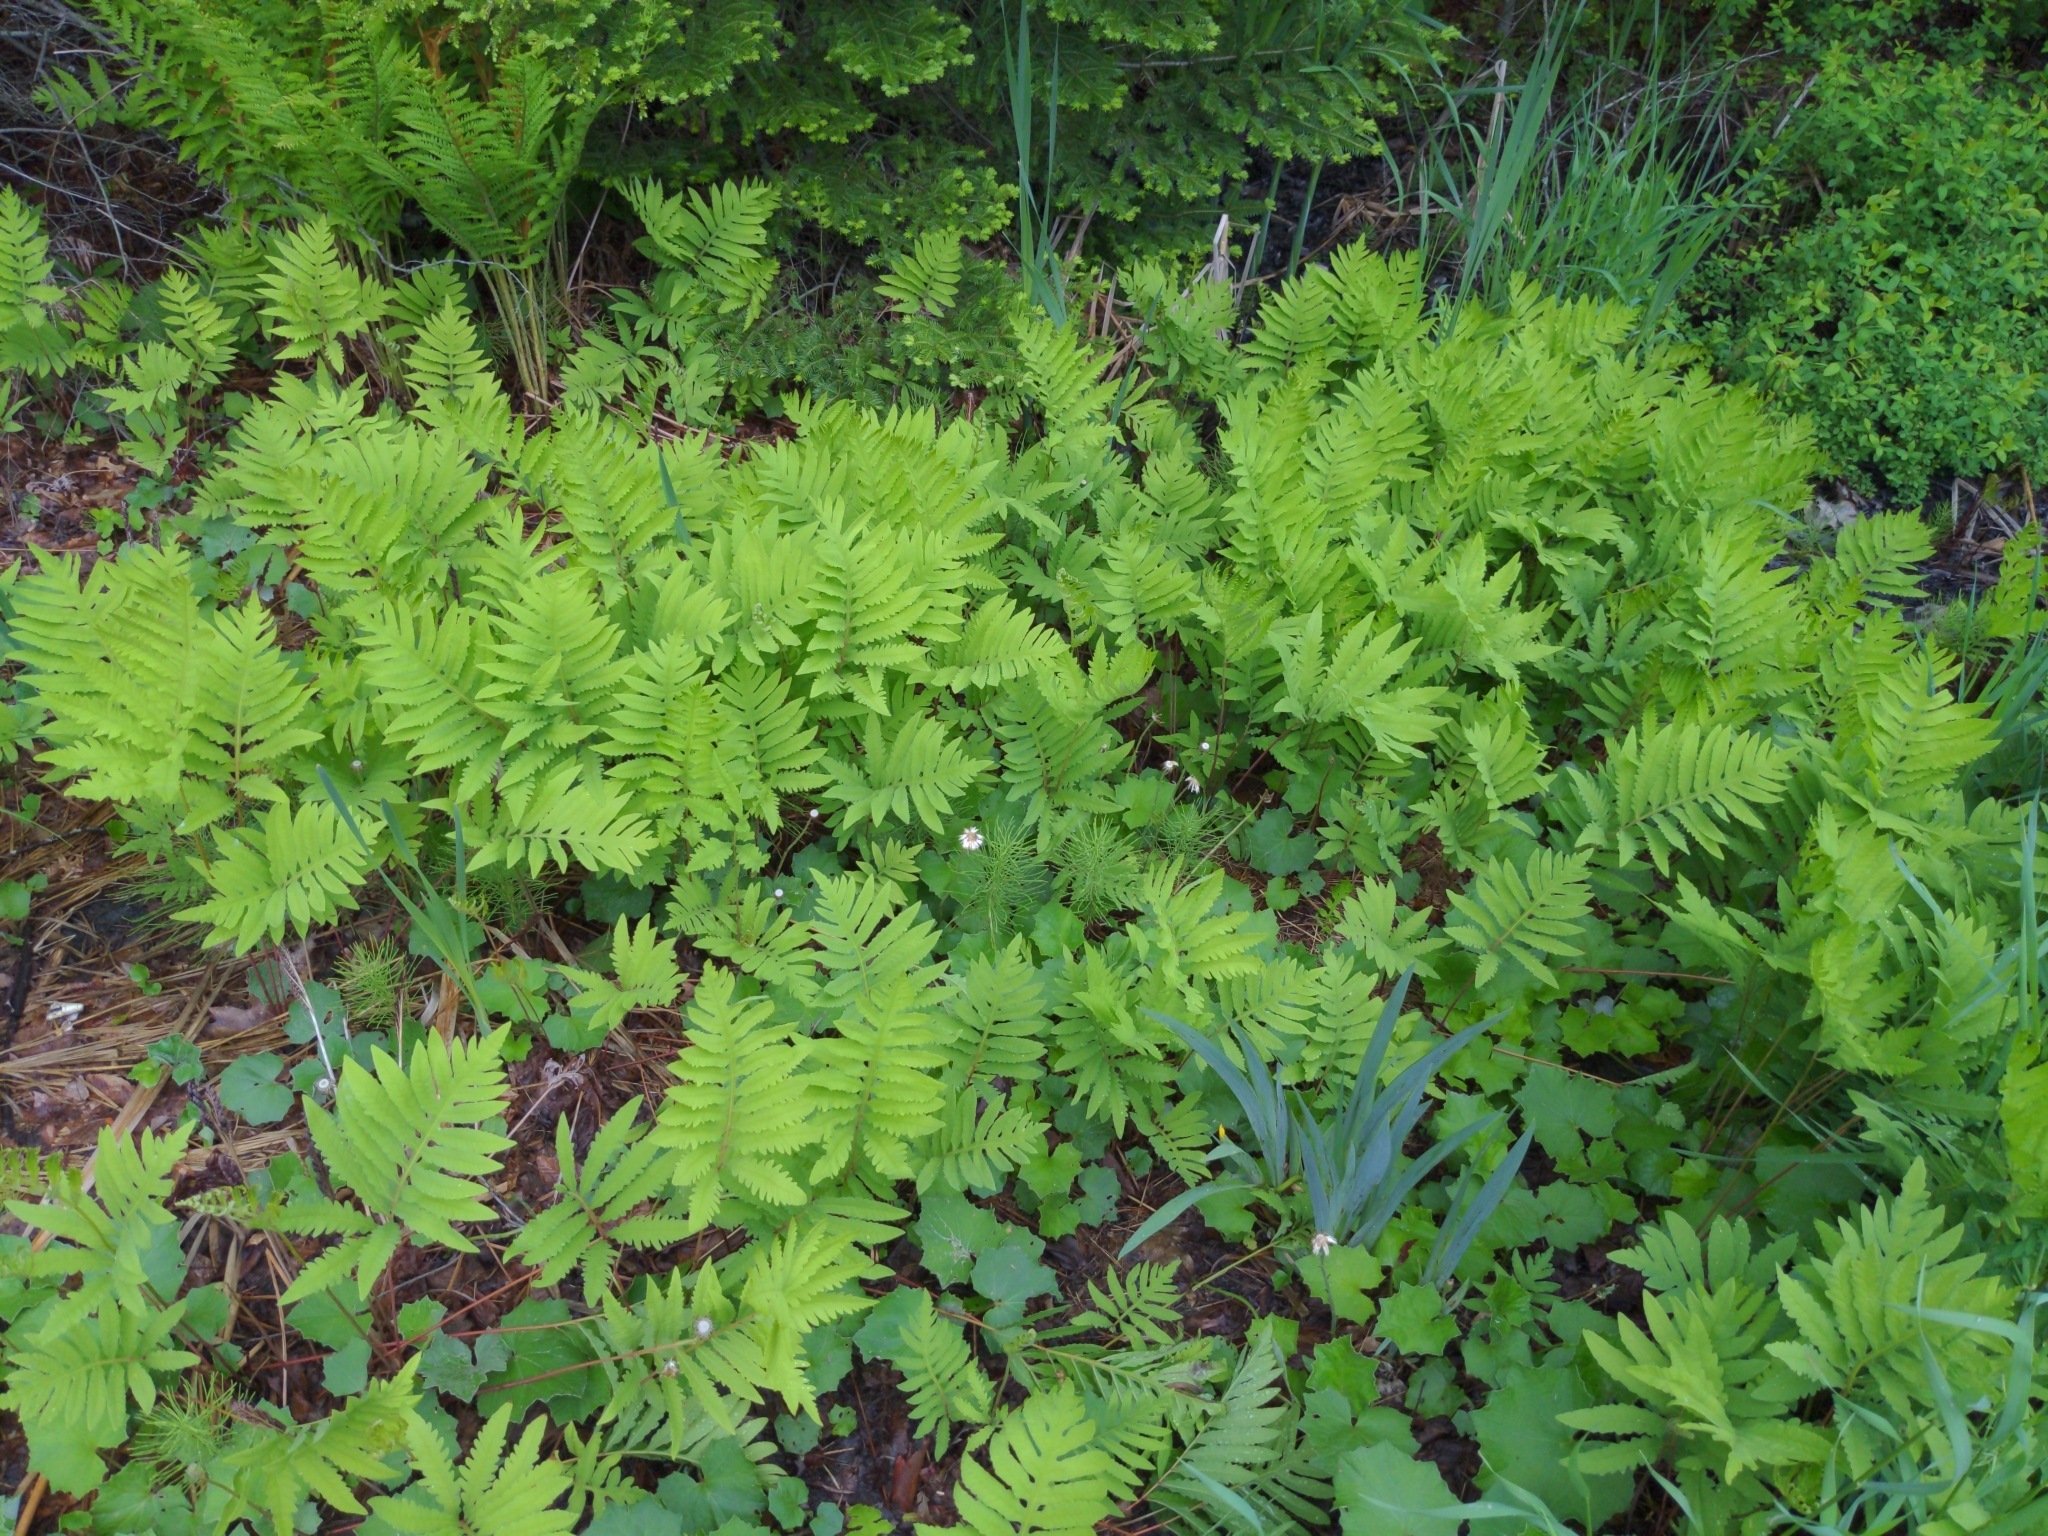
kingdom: Plantae
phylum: Tracheophyta
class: Polypodiopsida
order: Polypodiales
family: Onocleaceae
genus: Onoclea
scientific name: Onoclea sensibilis
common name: Sensitive fern
